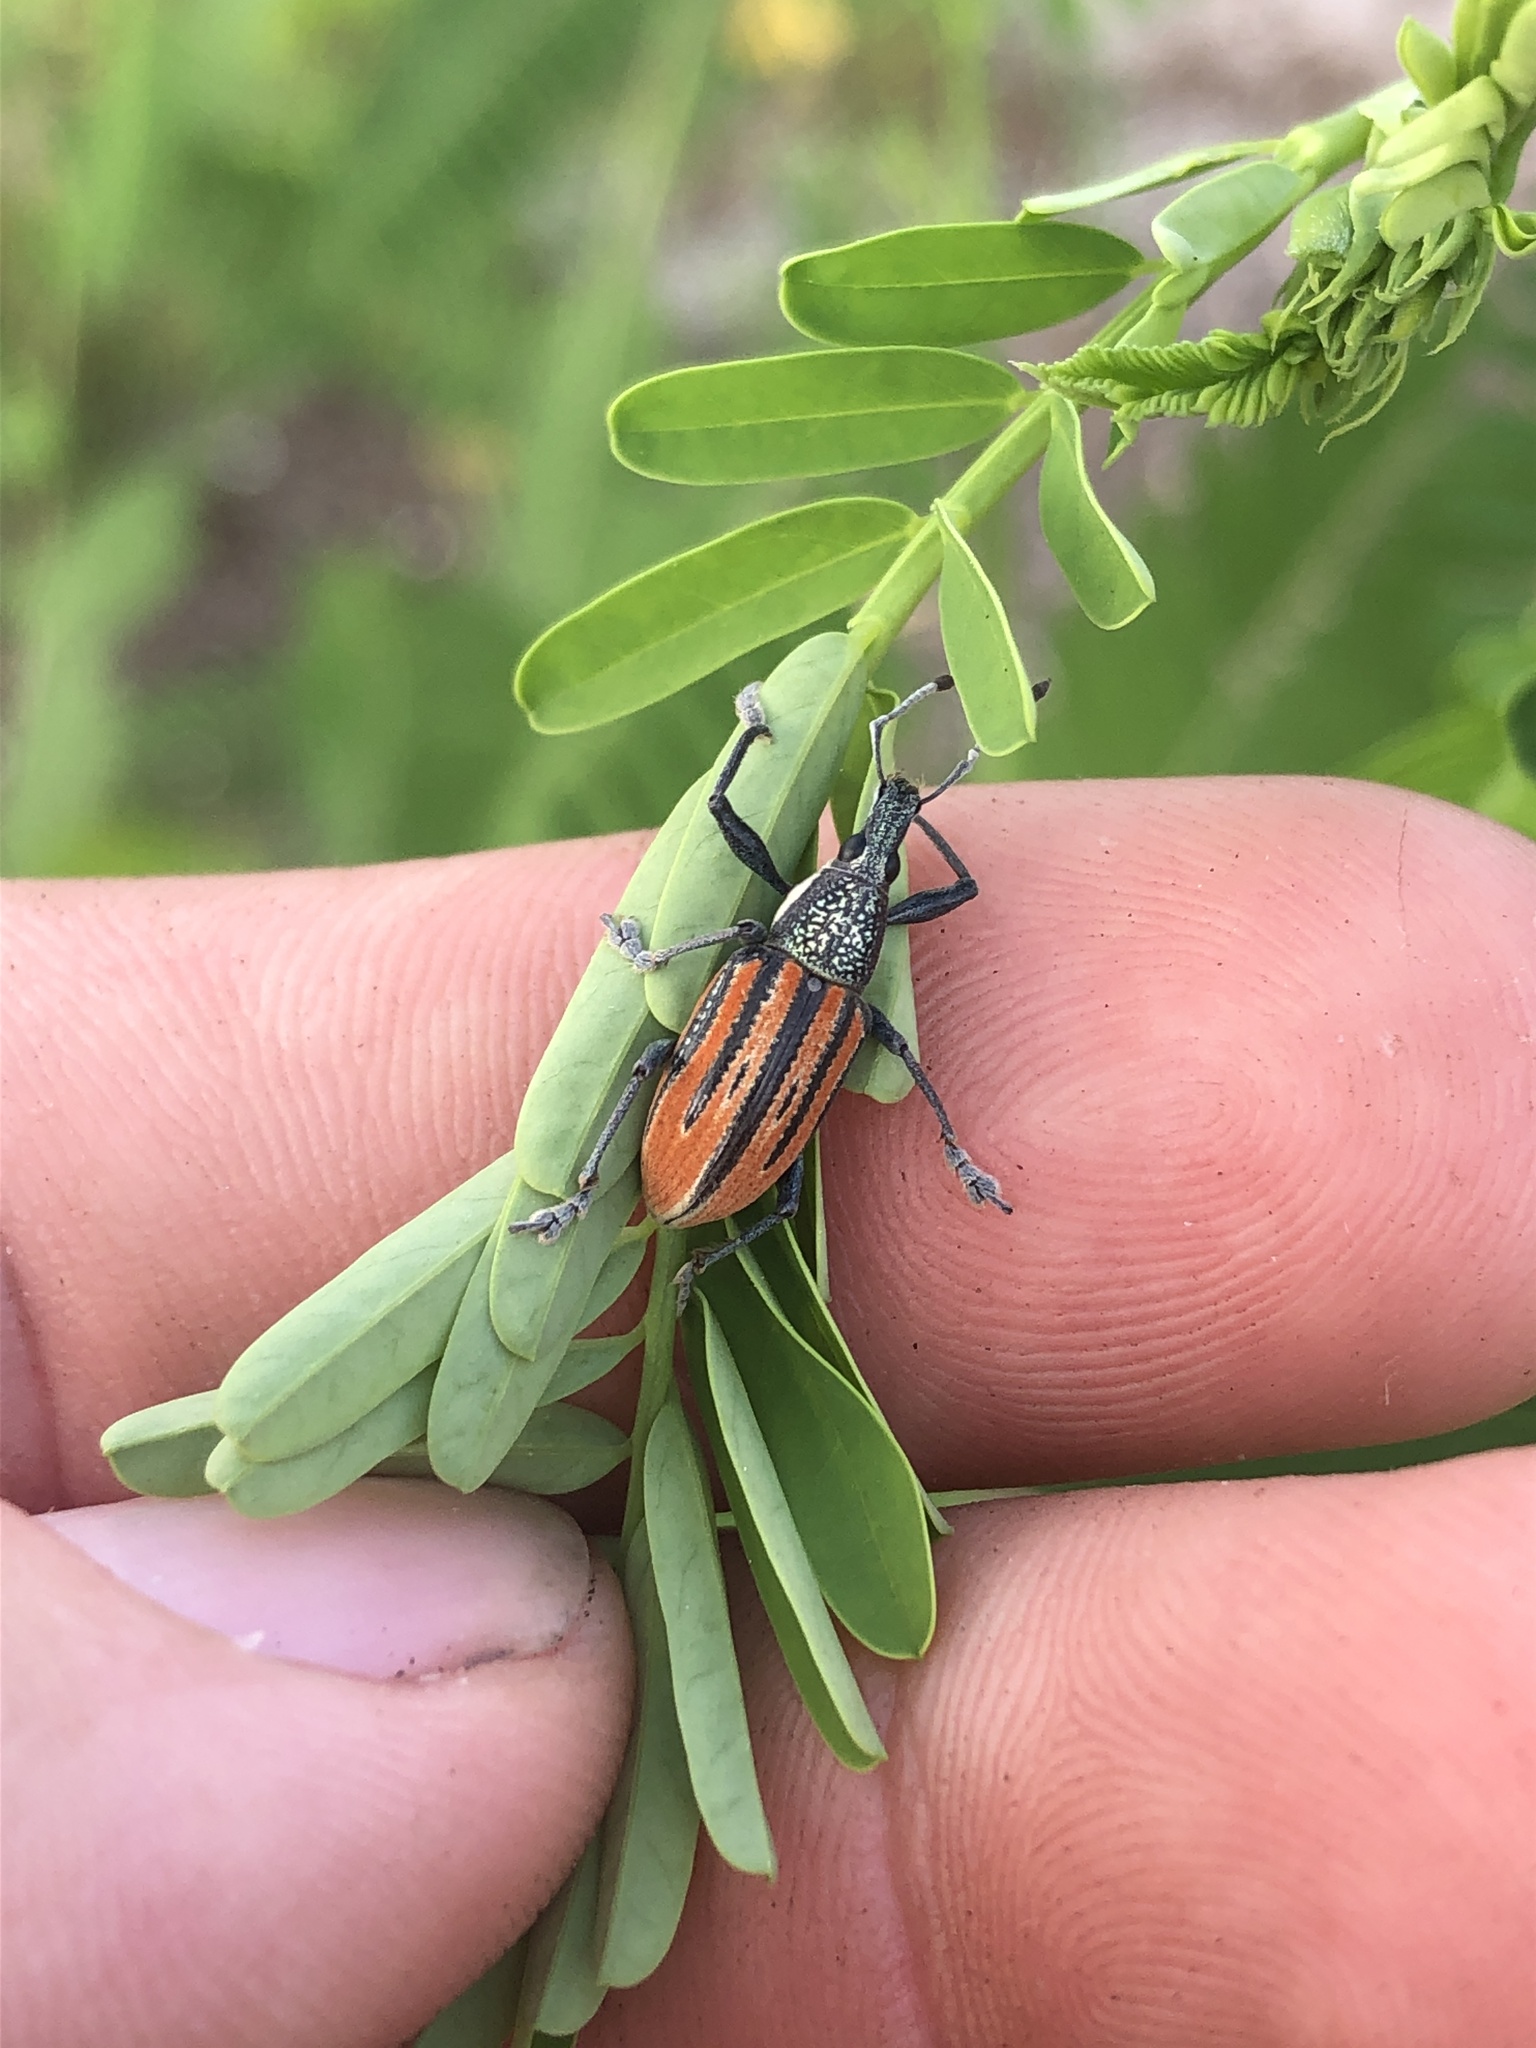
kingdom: Animalia
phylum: Arthropoda
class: Insecta
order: Coleoptera
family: Curculionidae
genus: Diaprepes
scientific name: Diaprepes abbreviatus
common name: Root weevil
